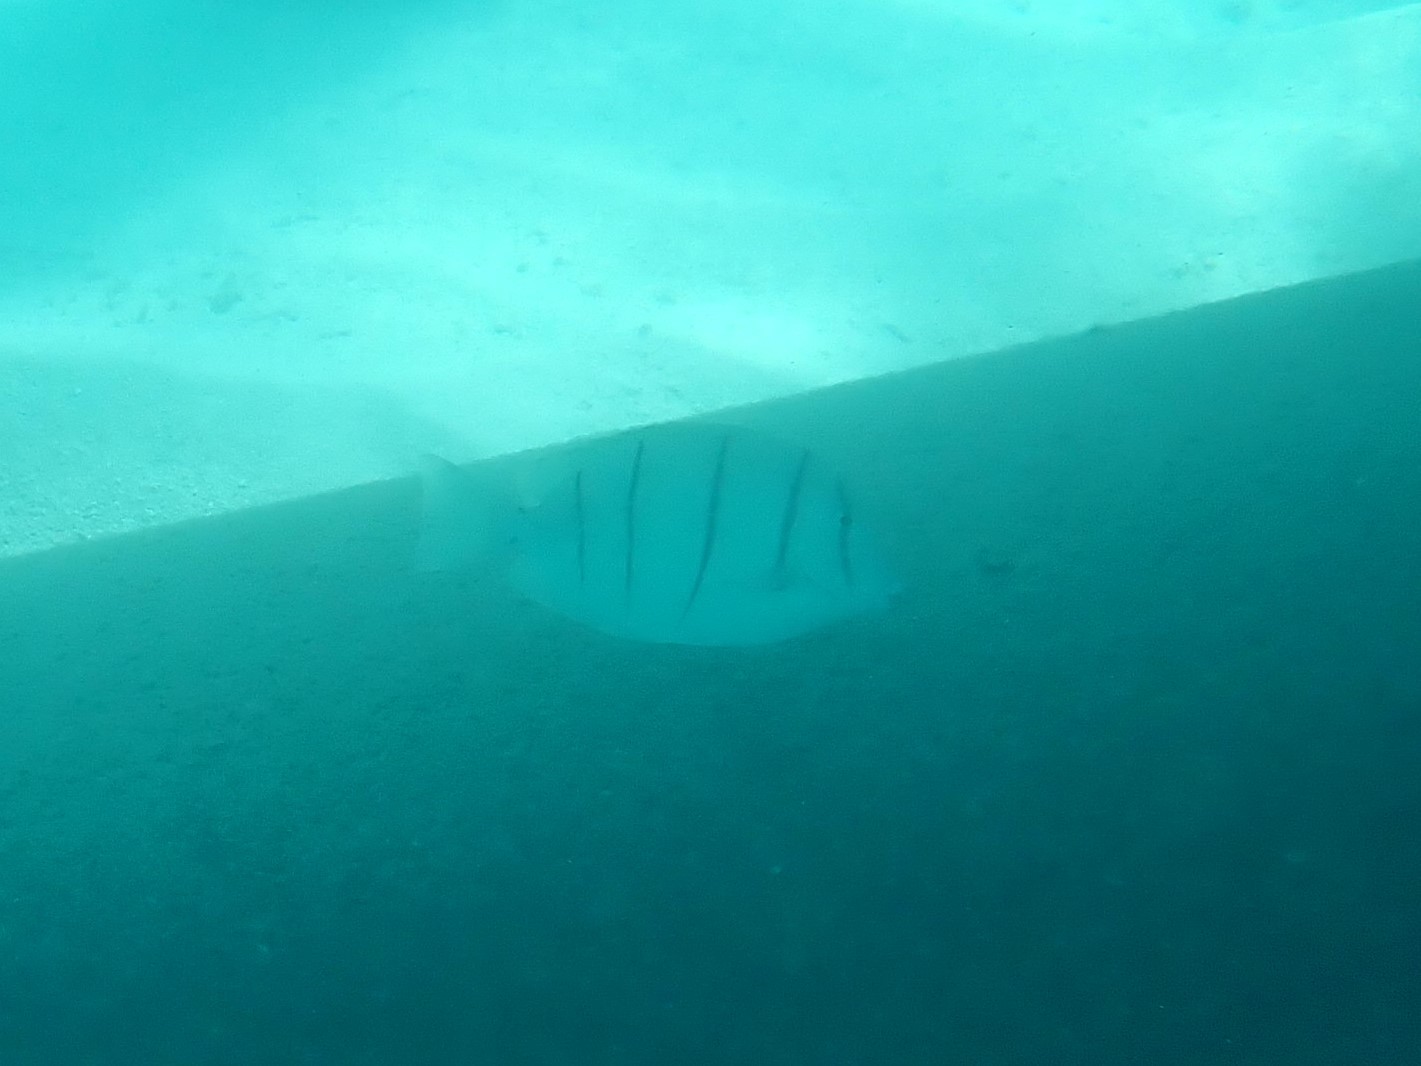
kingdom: Animalia
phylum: Chordata
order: Perciformes
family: Acanthuridae
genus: Acanthurus
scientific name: Acanthurus triostegus
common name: Convict surgeonfish
